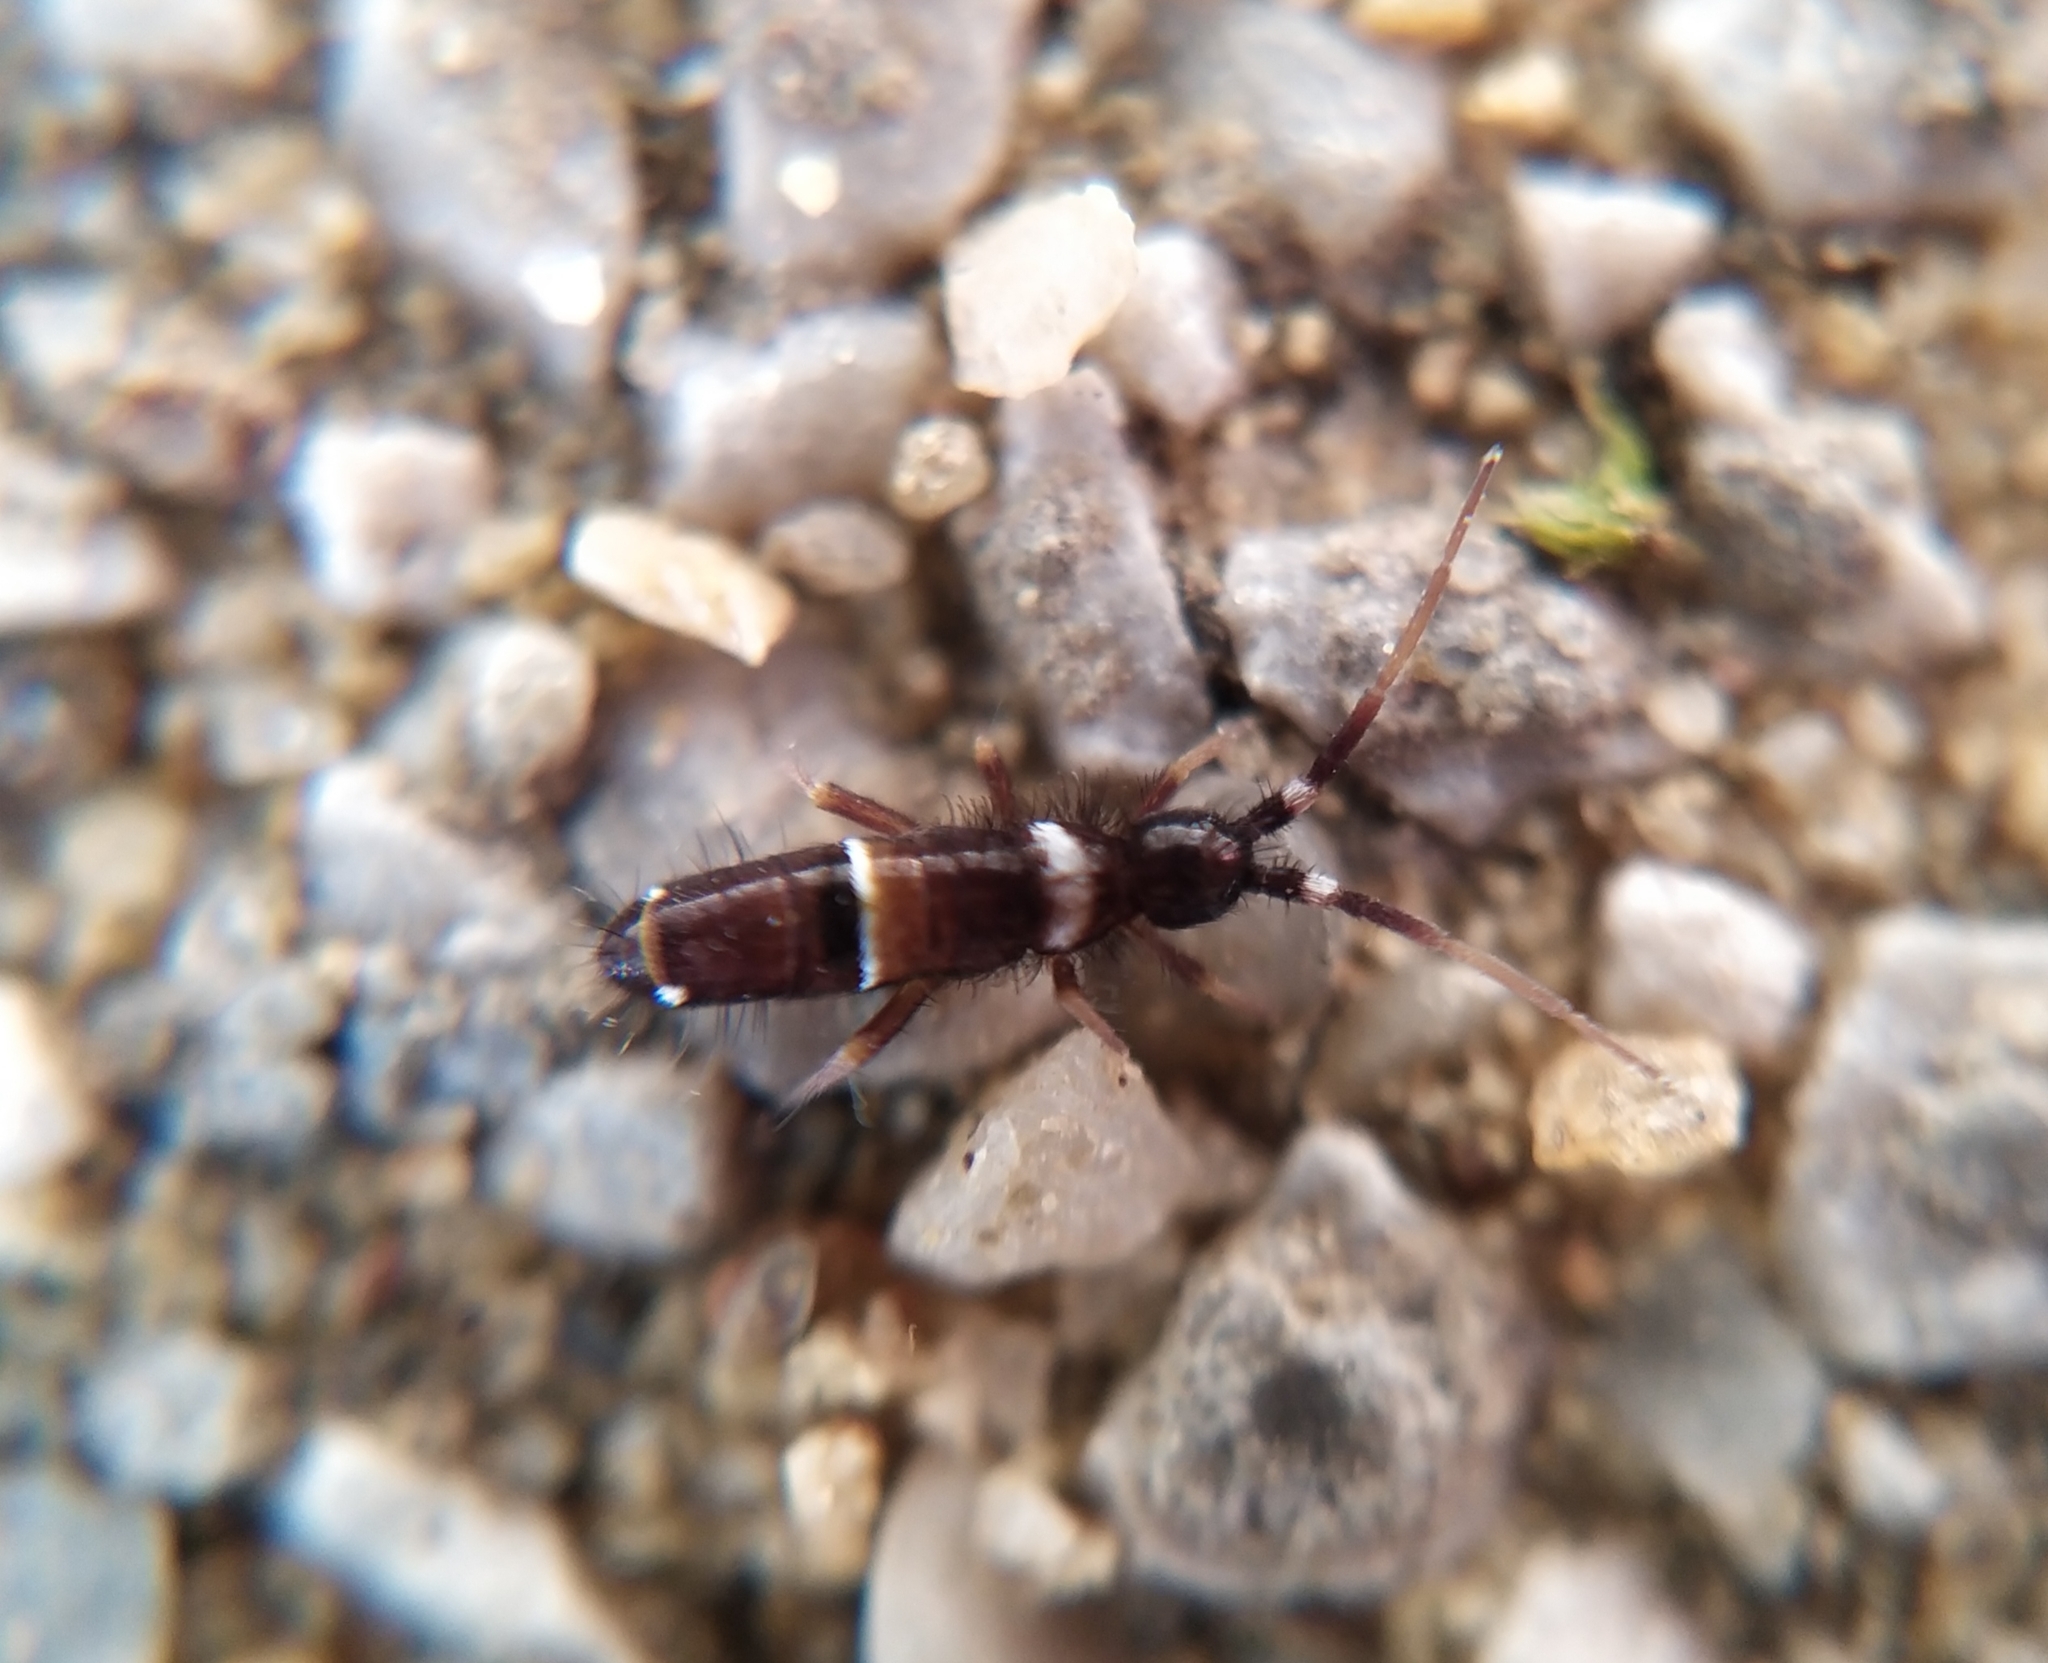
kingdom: Animalia
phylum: Arthropoda
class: Collembola
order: Entomobryomorpha
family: Orchesellidae
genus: Orchesella
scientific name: Orchesella cincta
